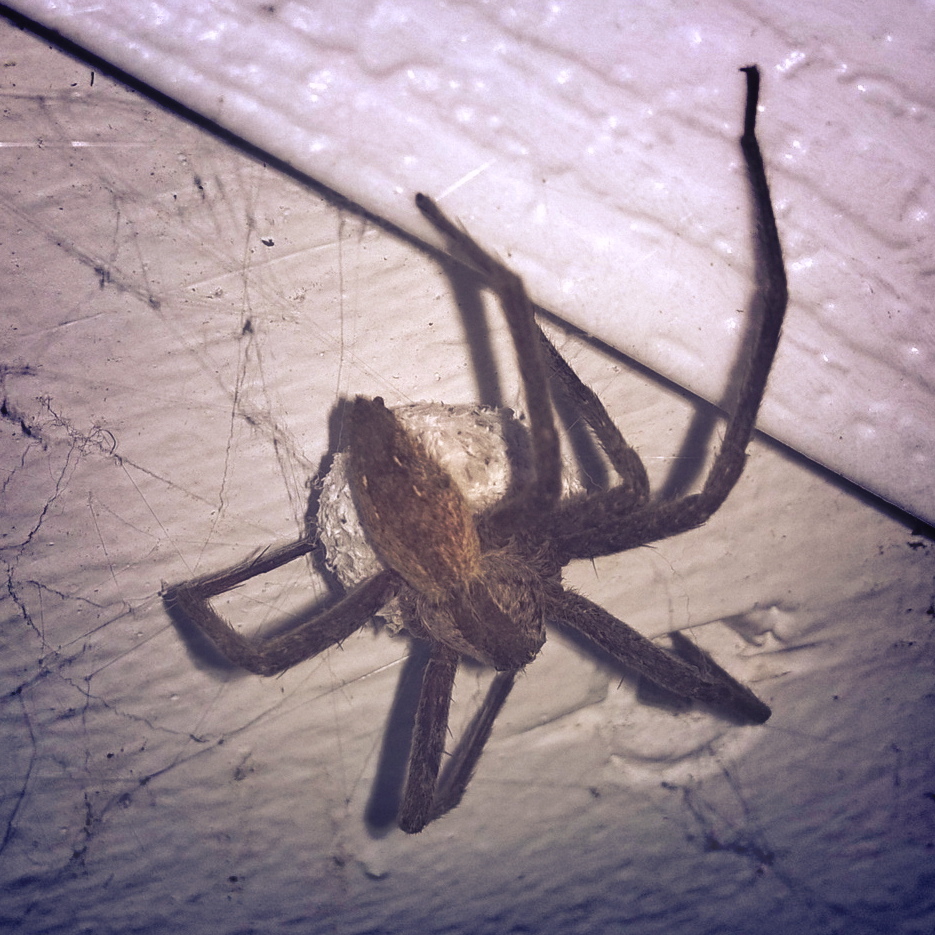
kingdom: Animalia
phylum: Arthropoda
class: Arachnida
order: Araneae
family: Pisauridae
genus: Pisaurina
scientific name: Pisaurina mira
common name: American nursery web spider
